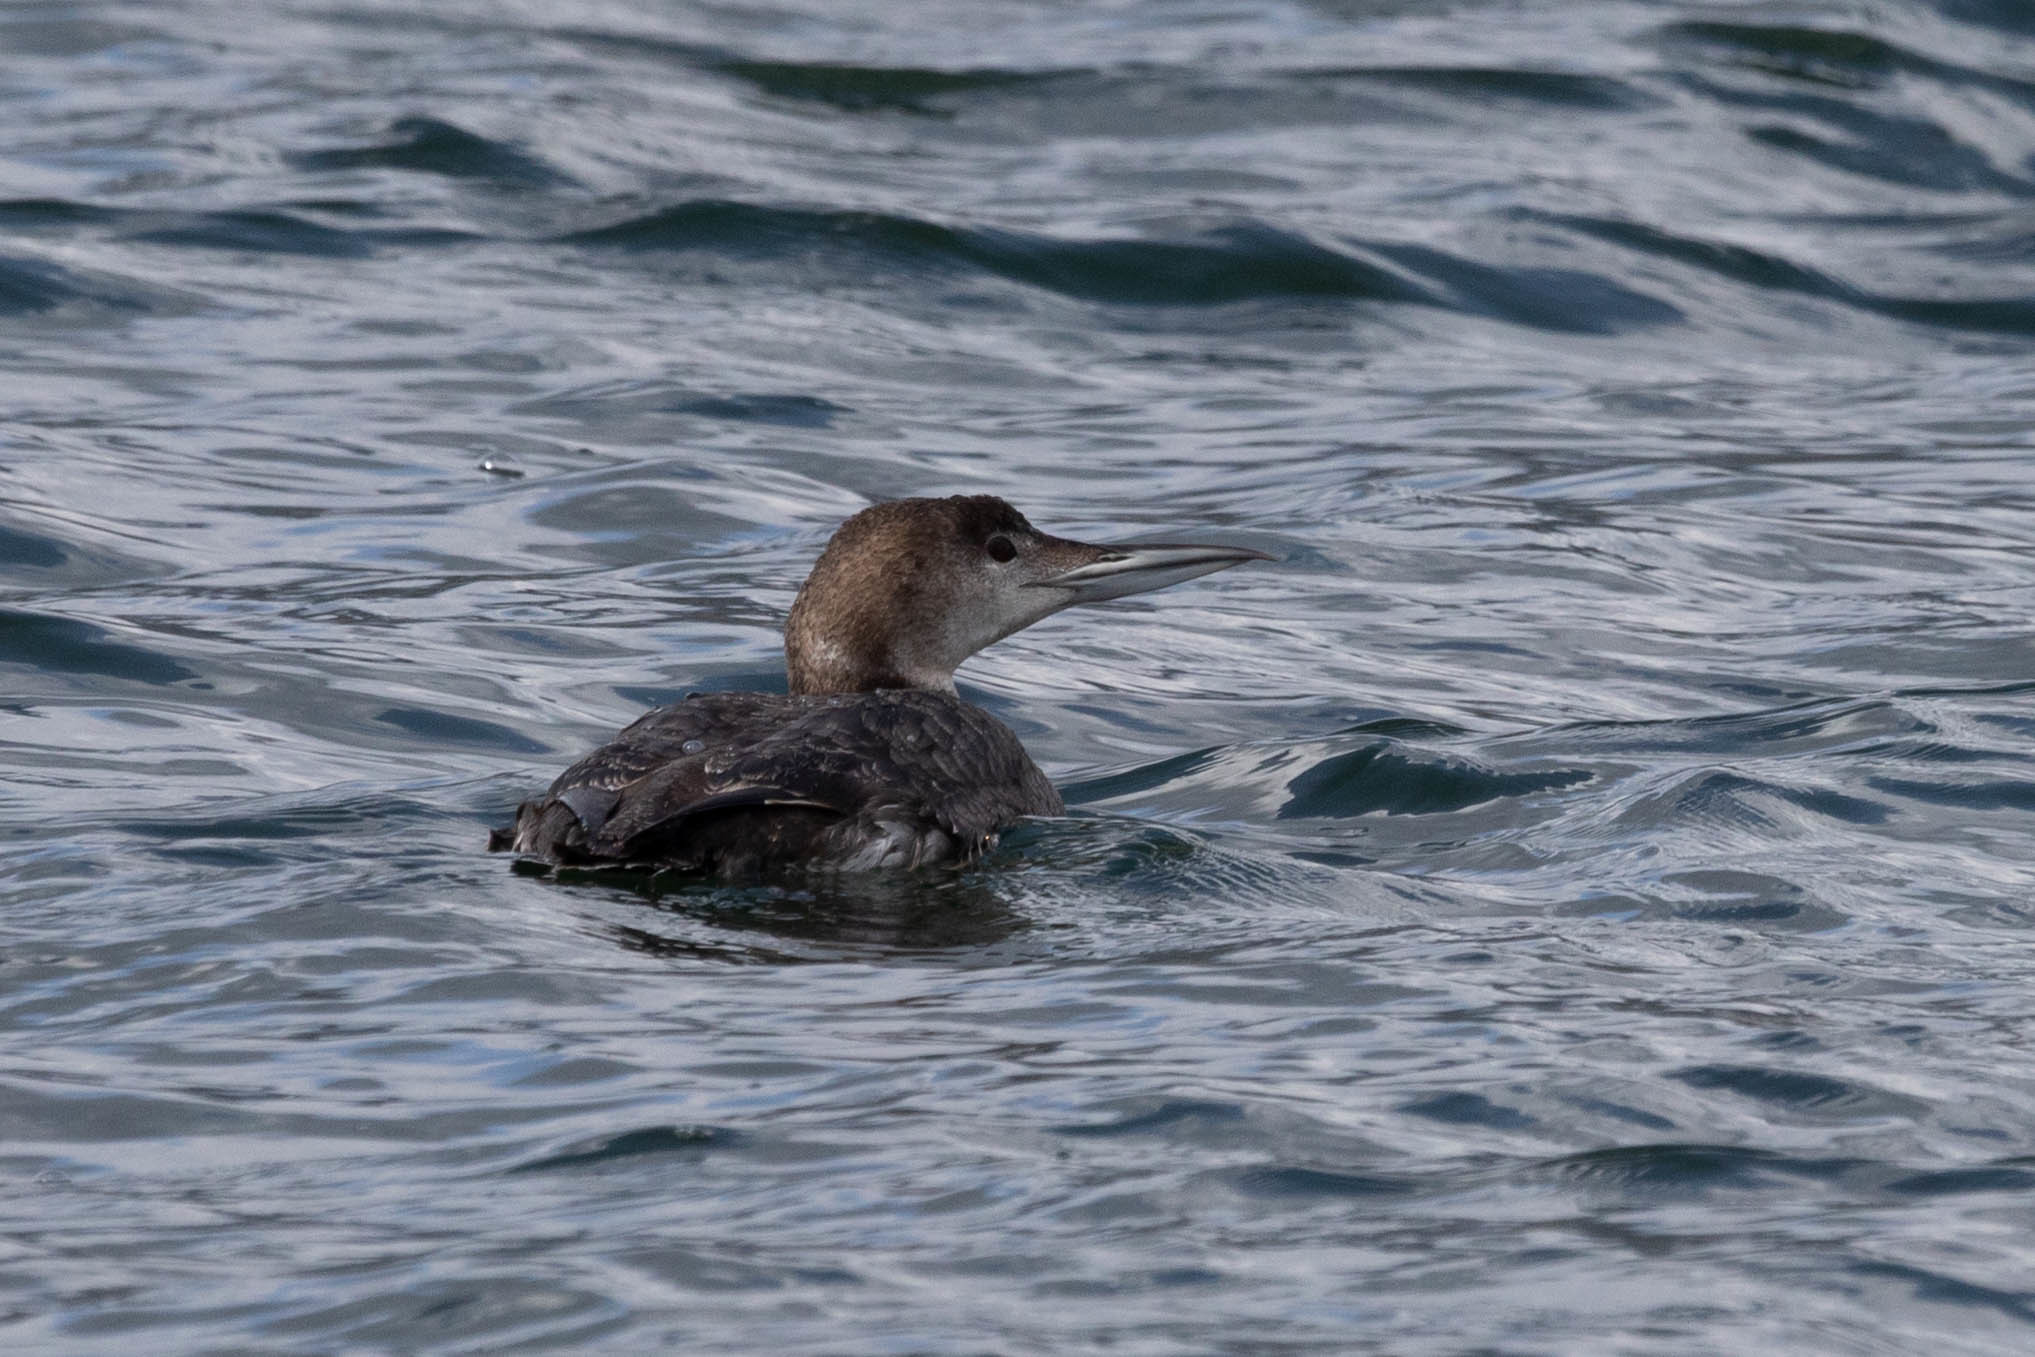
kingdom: Animalia
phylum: Chordata
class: Aves
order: Gaviiformes
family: Gaviidae
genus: Gavia
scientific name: Gavia immer
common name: Common loon
